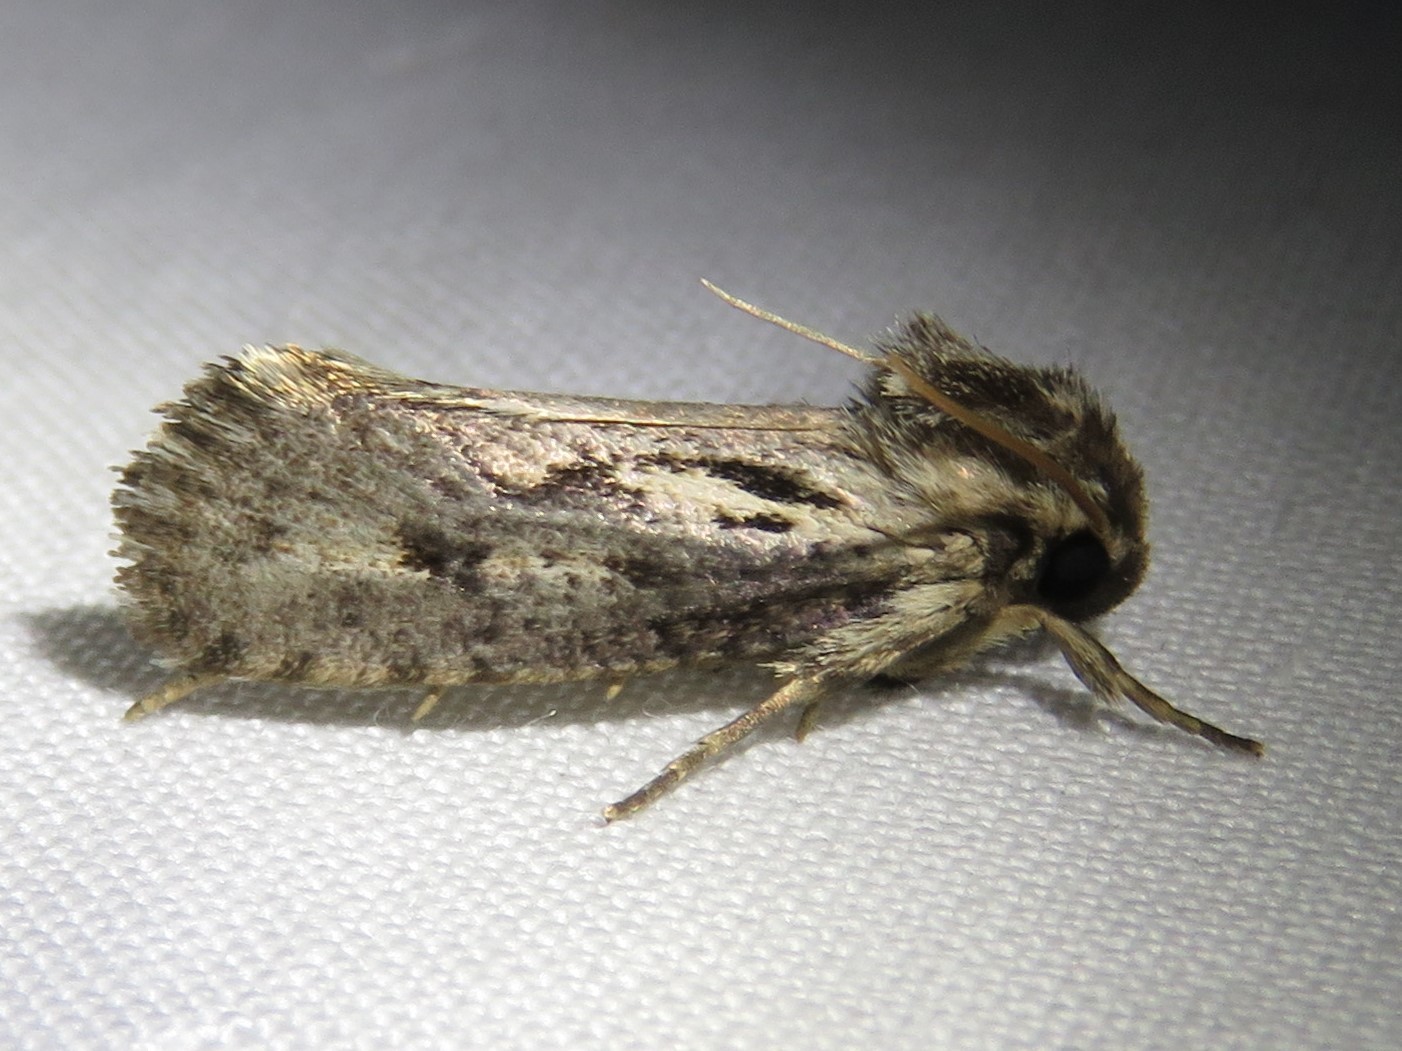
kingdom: Animalia
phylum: Arthropoda
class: Insecta
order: Lepidoptera
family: Tineidae
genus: Acrolophus
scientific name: Acrolophus popeanella
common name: Clemens' grass tubeworm moth
